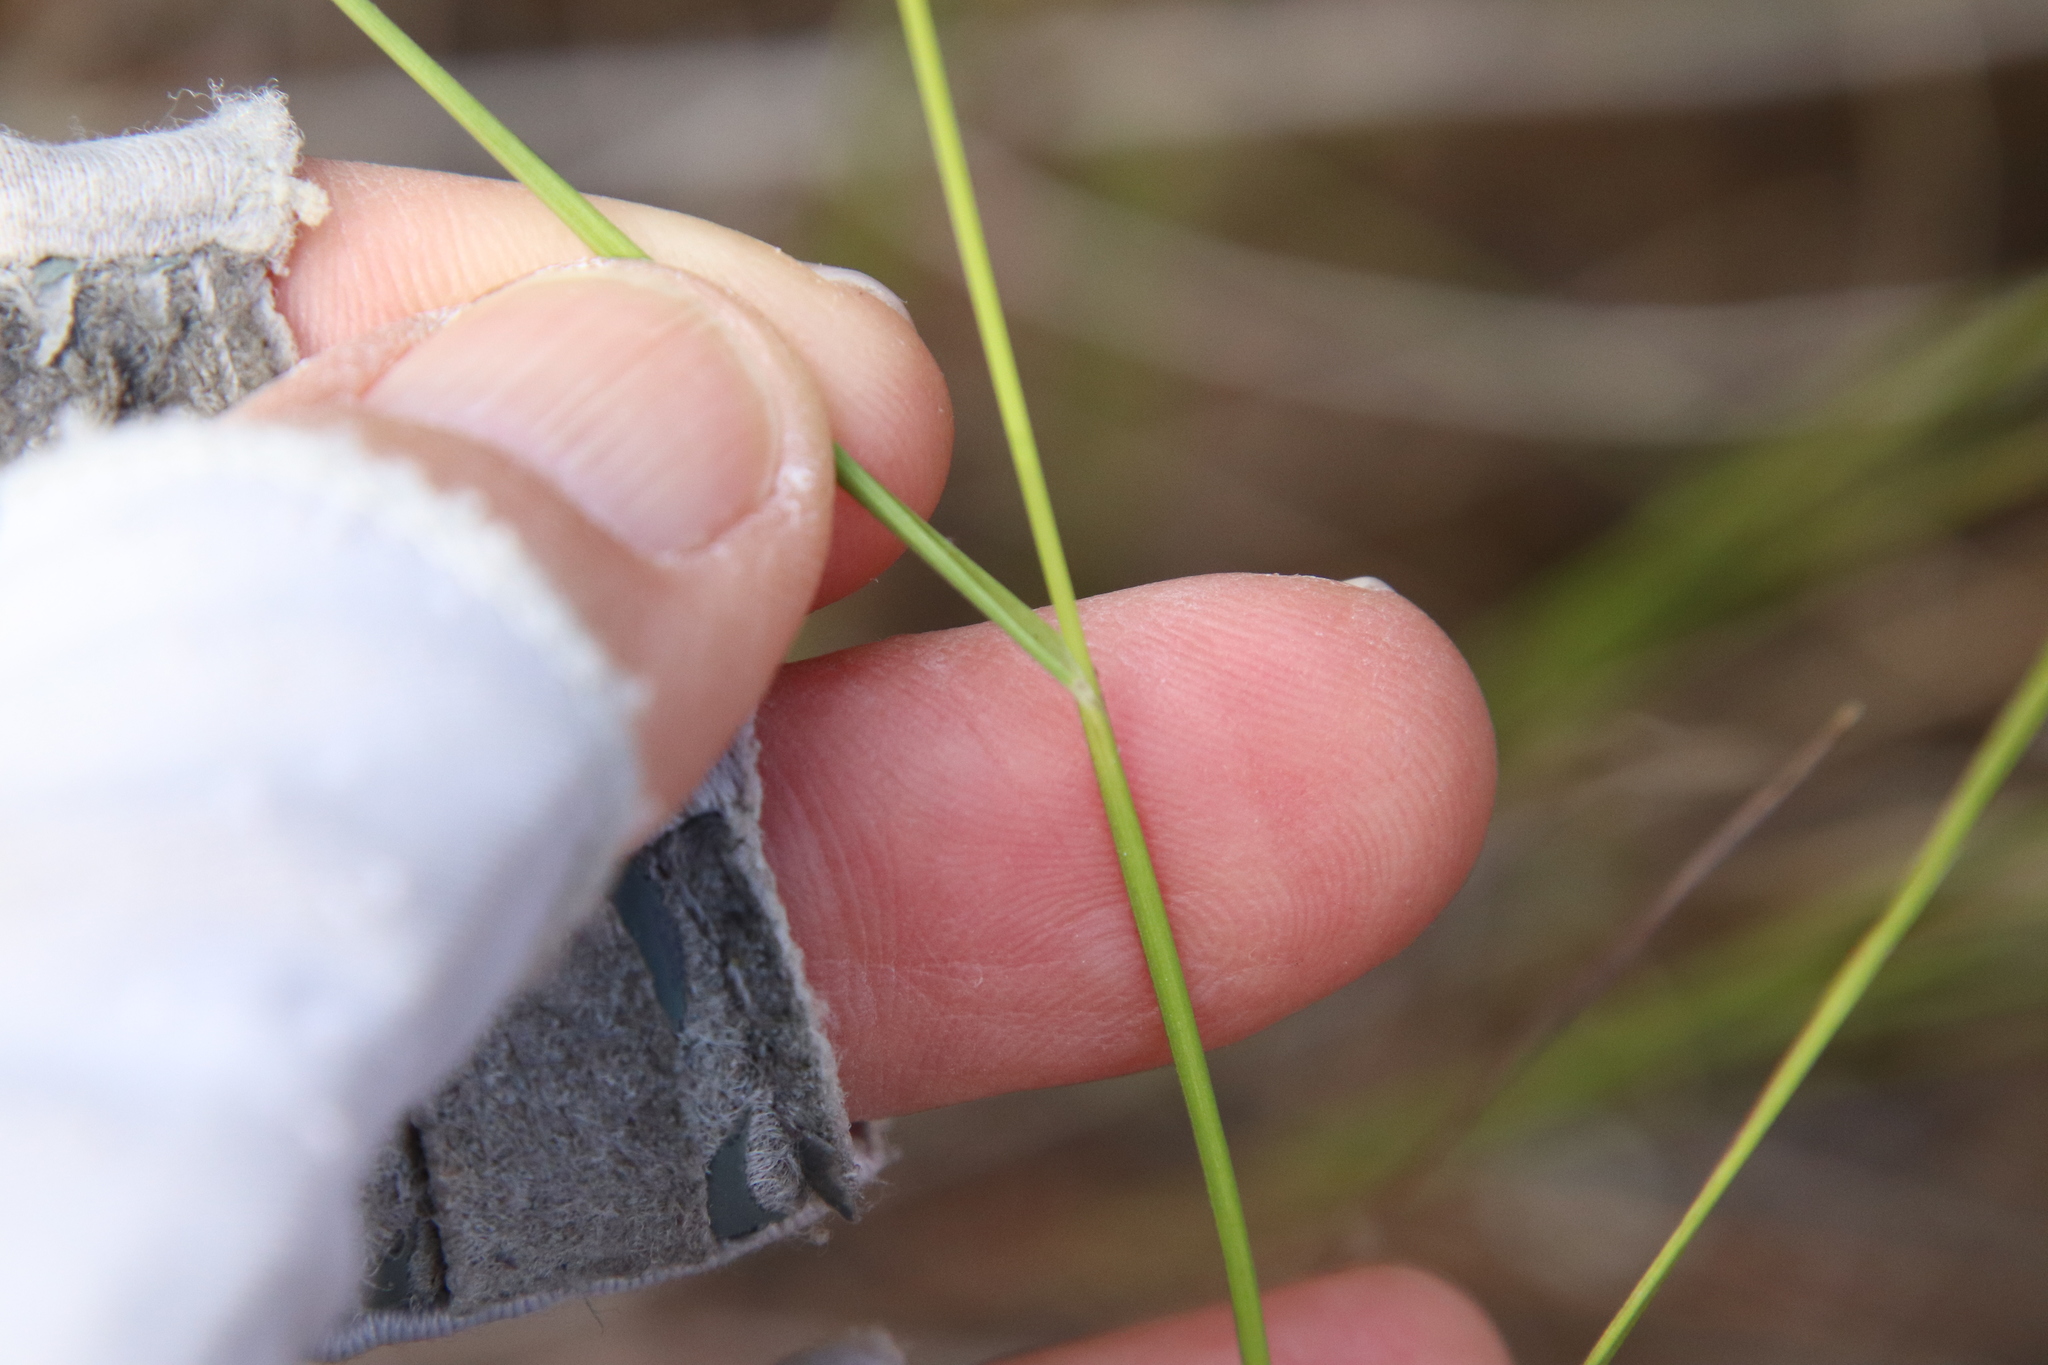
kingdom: Plantae
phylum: Tracheophyta
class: Liliopsida
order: Poales
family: Poaceae
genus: Melica
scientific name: Melica imperfecta
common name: California melic
